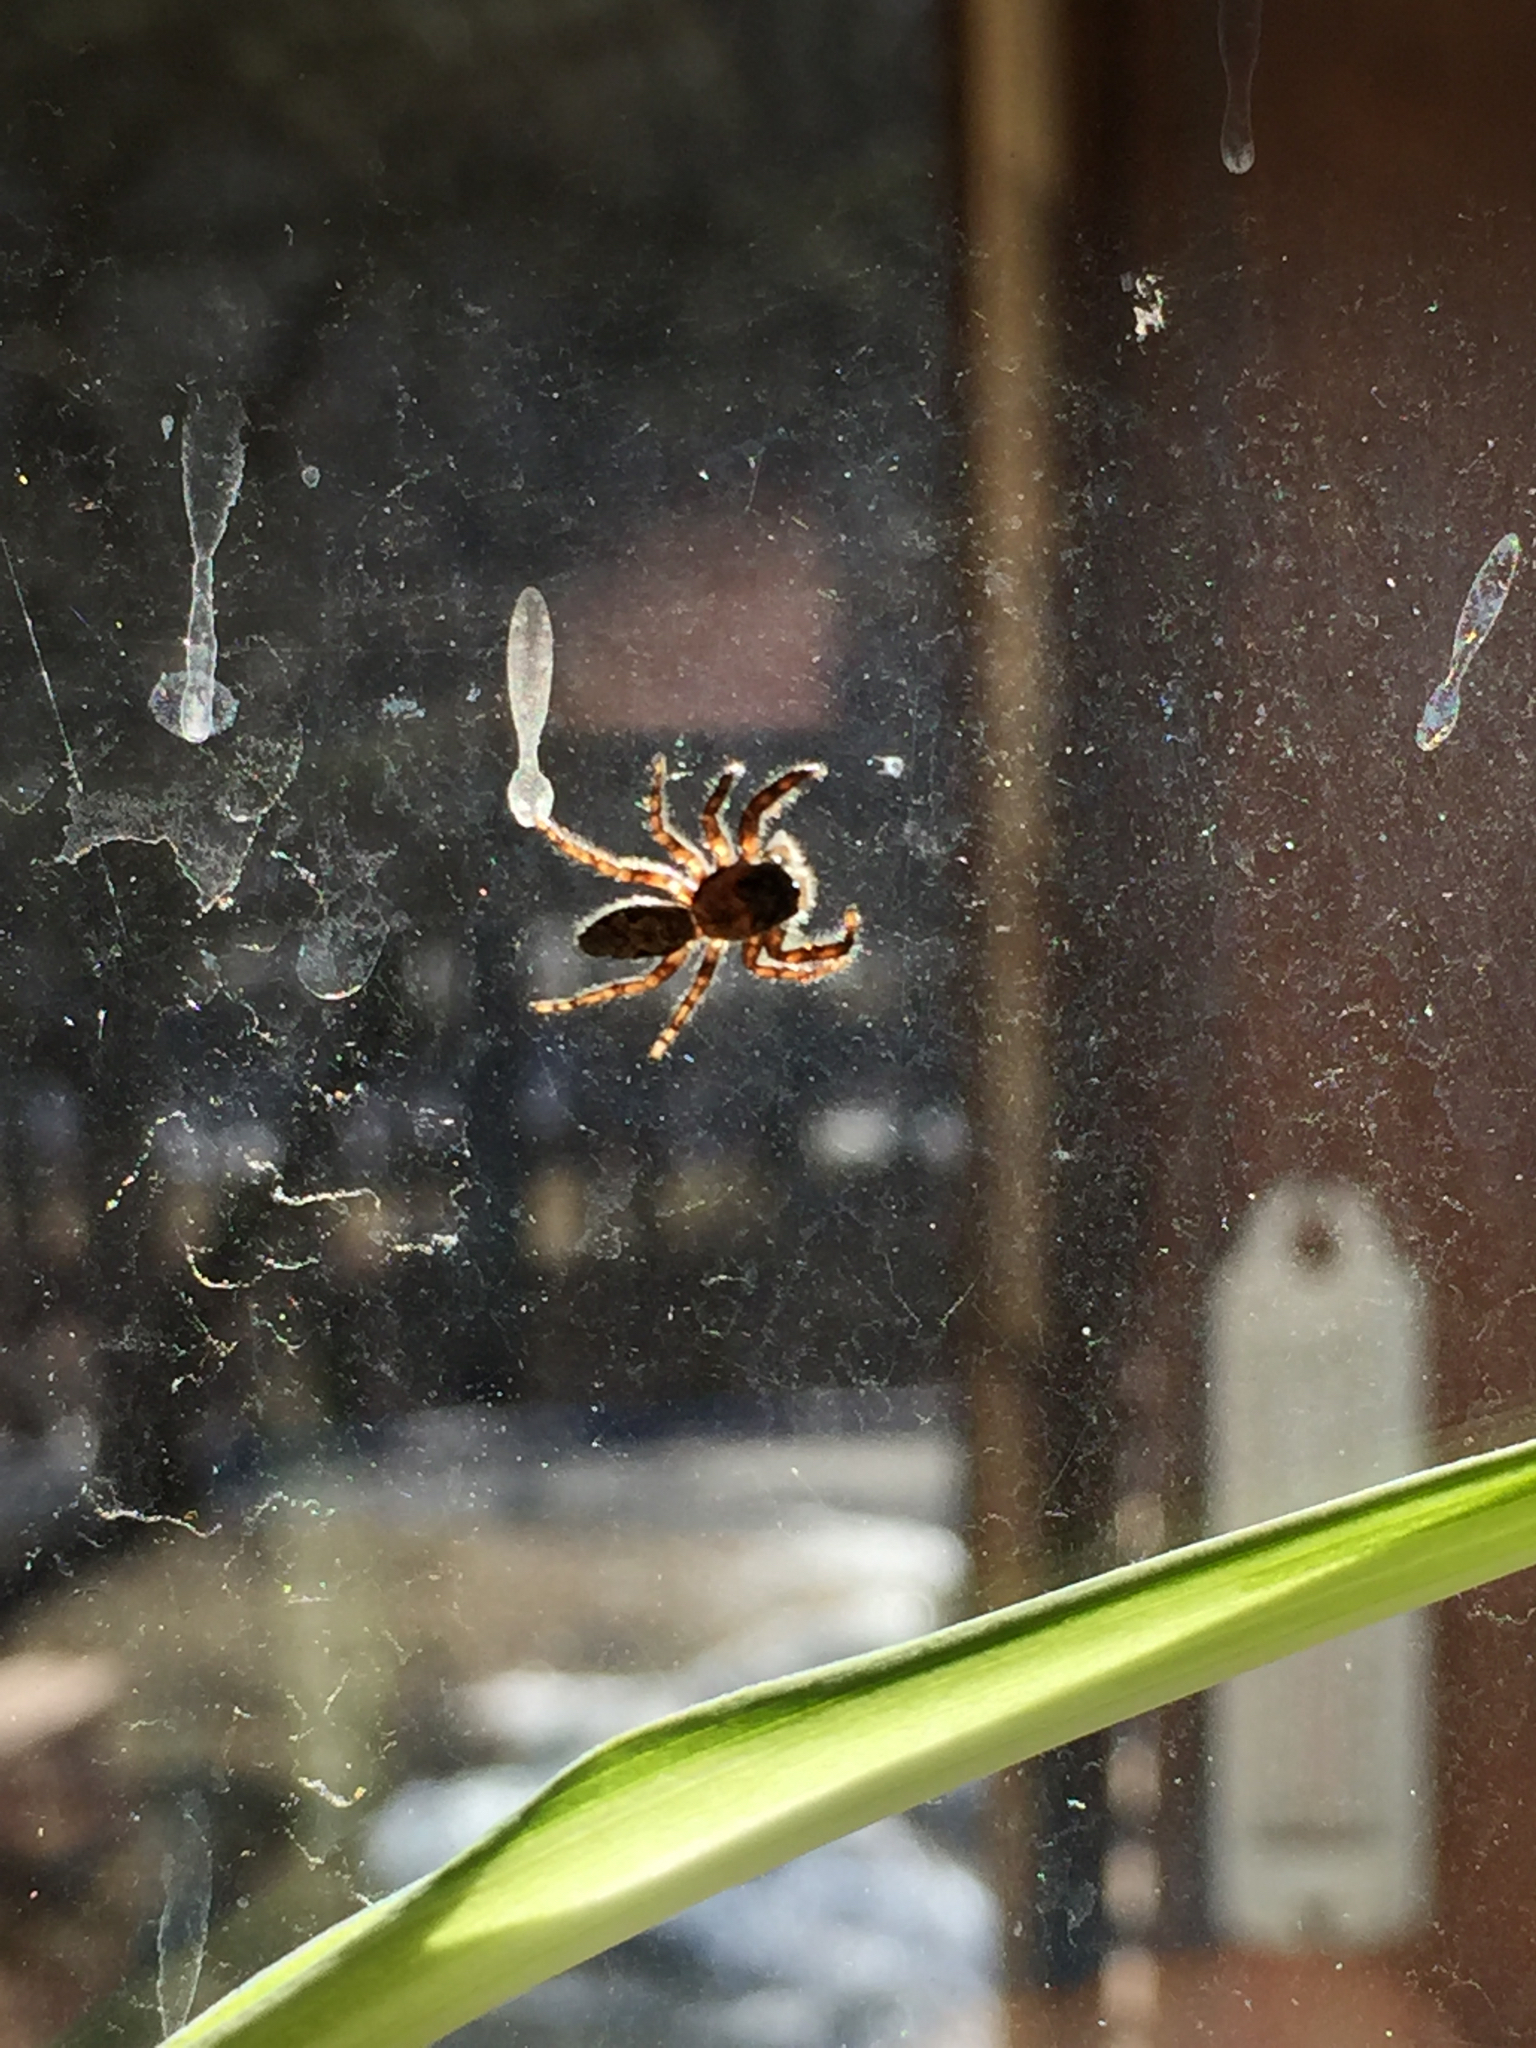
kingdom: Animalia
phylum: Arthropoda
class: Arachnida
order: Araneae
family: Salticidae
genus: Platycryptus
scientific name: Platycryptus undatus
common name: Tan jumping spider
